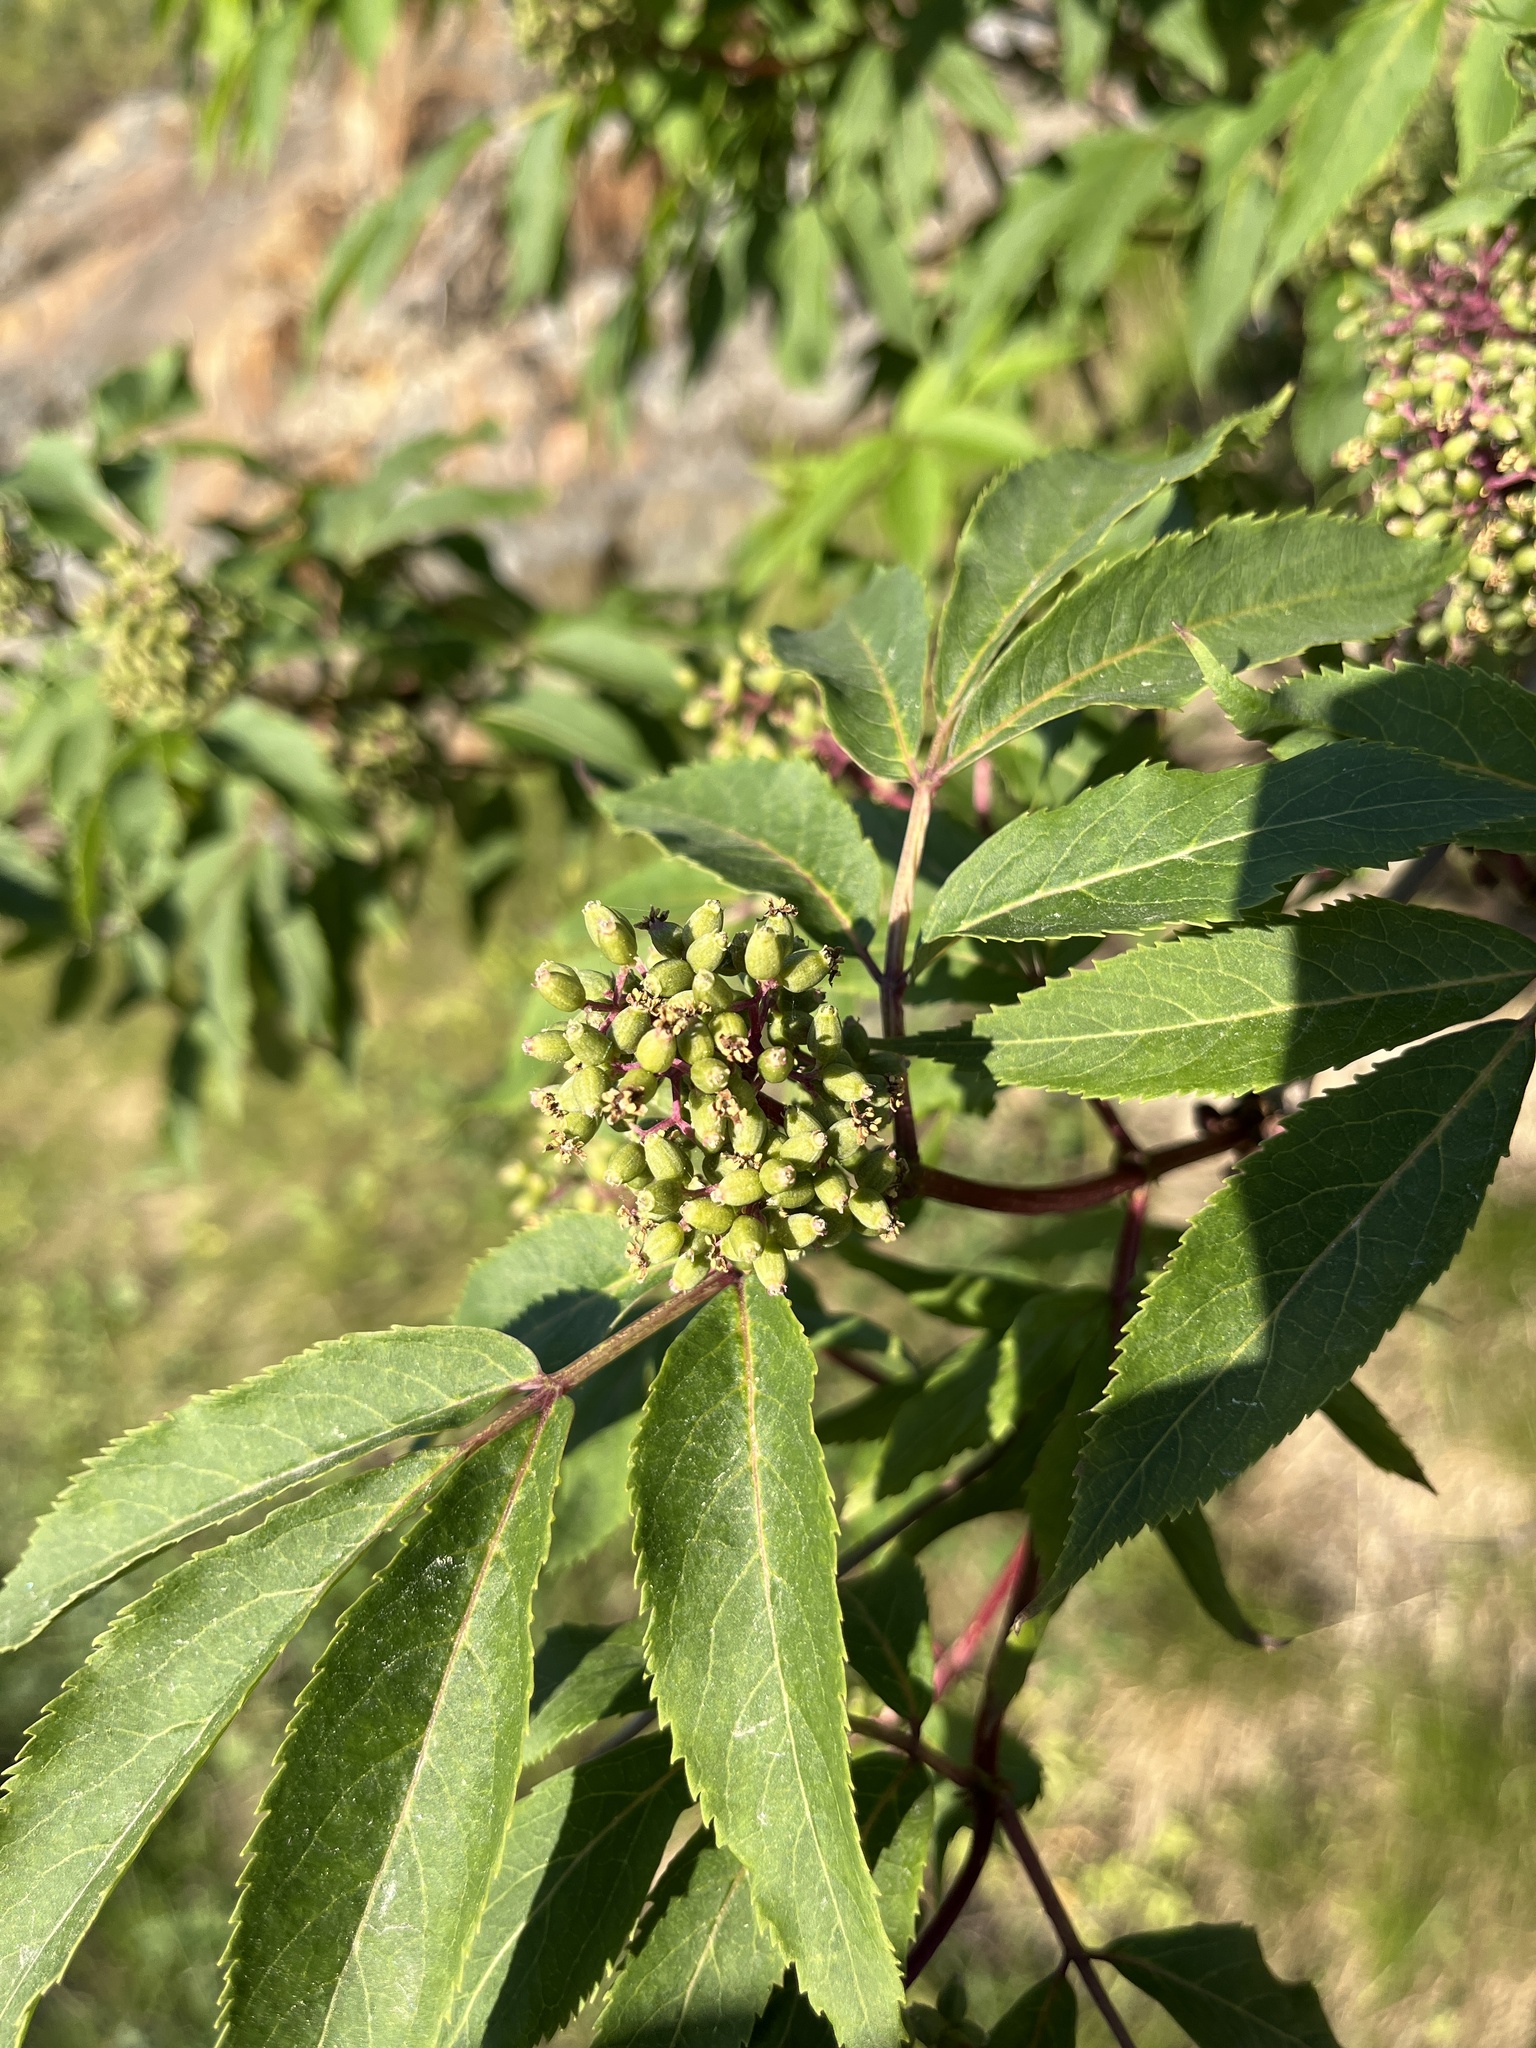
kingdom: Plantae
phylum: Tracheophyta
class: Magnoliopsida
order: Dipsacales
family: Viburnaceae
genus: Sambucus
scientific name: Sambucus racemosa
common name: Red-berried elder
